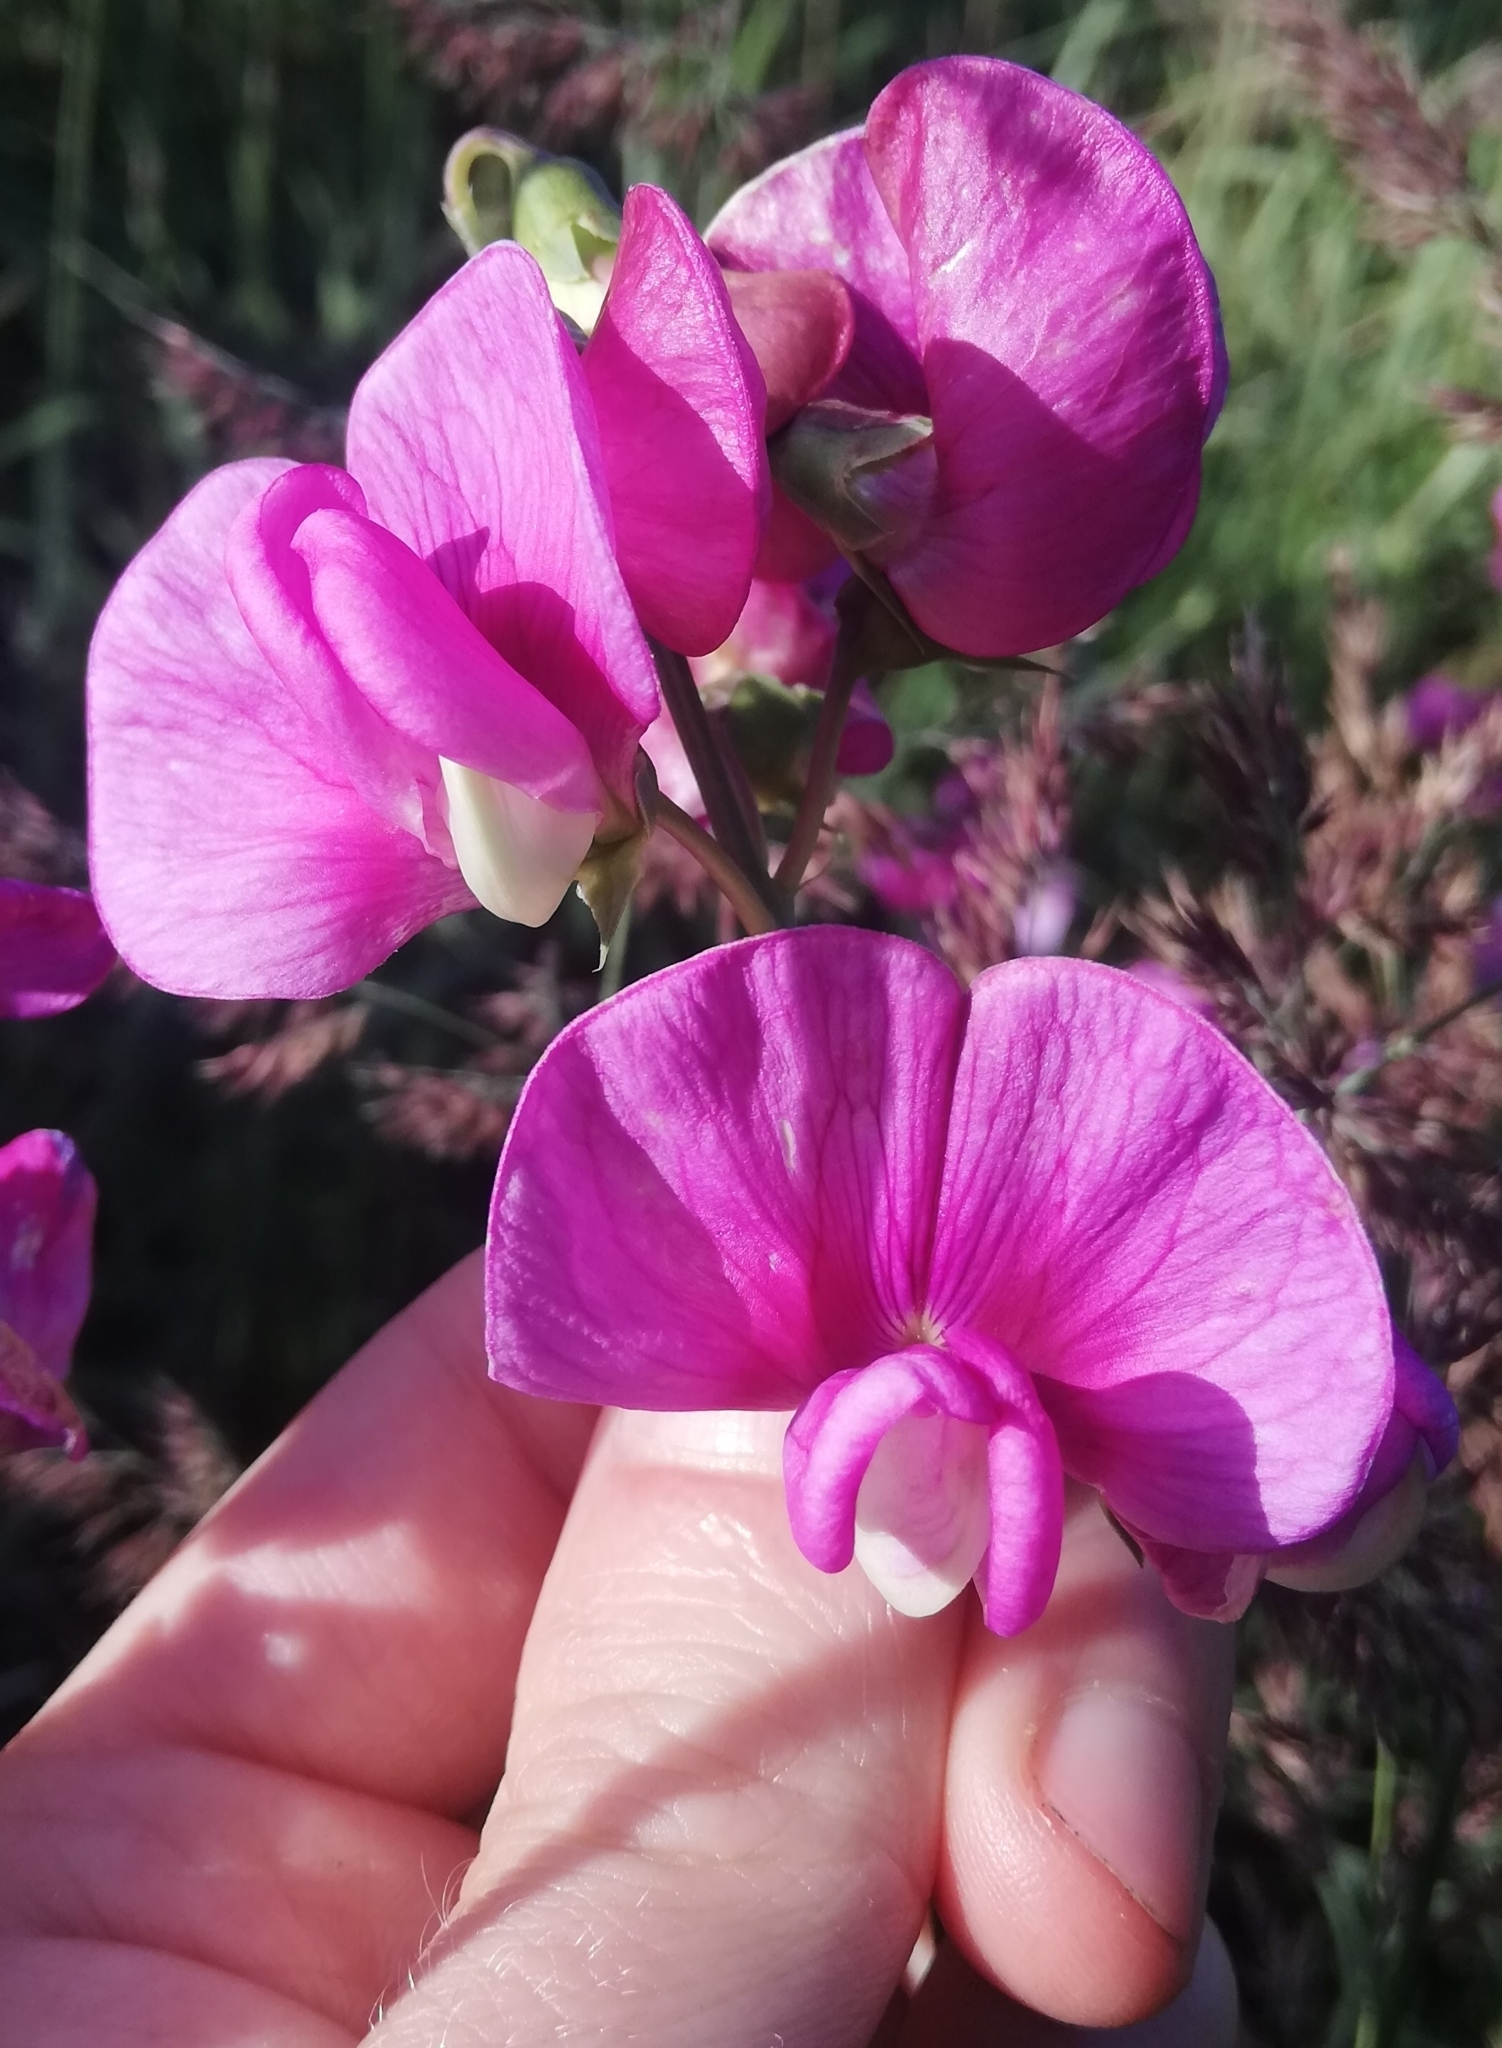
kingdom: Plantae
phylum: Tracheophyta
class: Magnoliopsida
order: Fabales
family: Fabaceae
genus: Lathyrus
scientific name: Lathyrus latifolius
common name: Perennial pea
